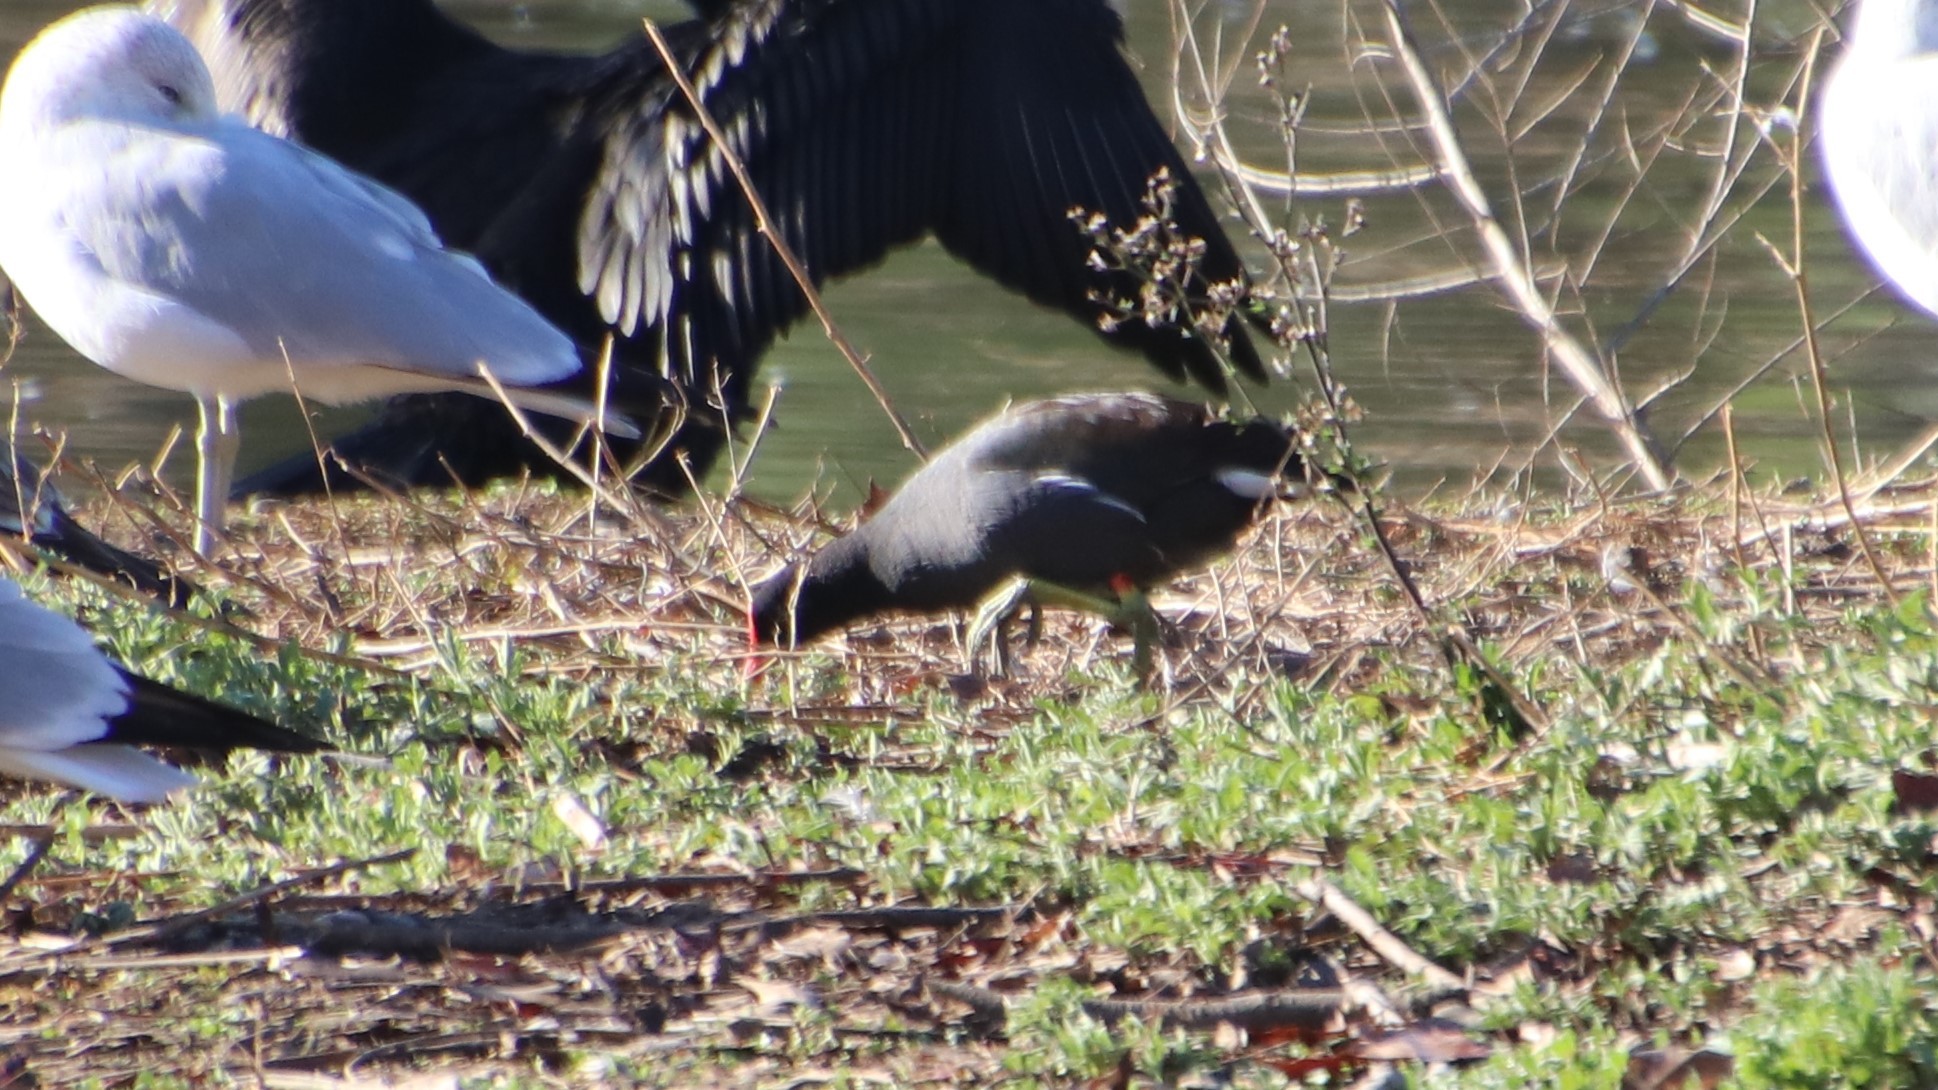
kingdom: Animalia
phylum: Chordata
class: Aves
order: Gruiformes
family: Rallidae
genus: Gallinula
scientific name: Gallinula chloropus
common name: Common moorhen
